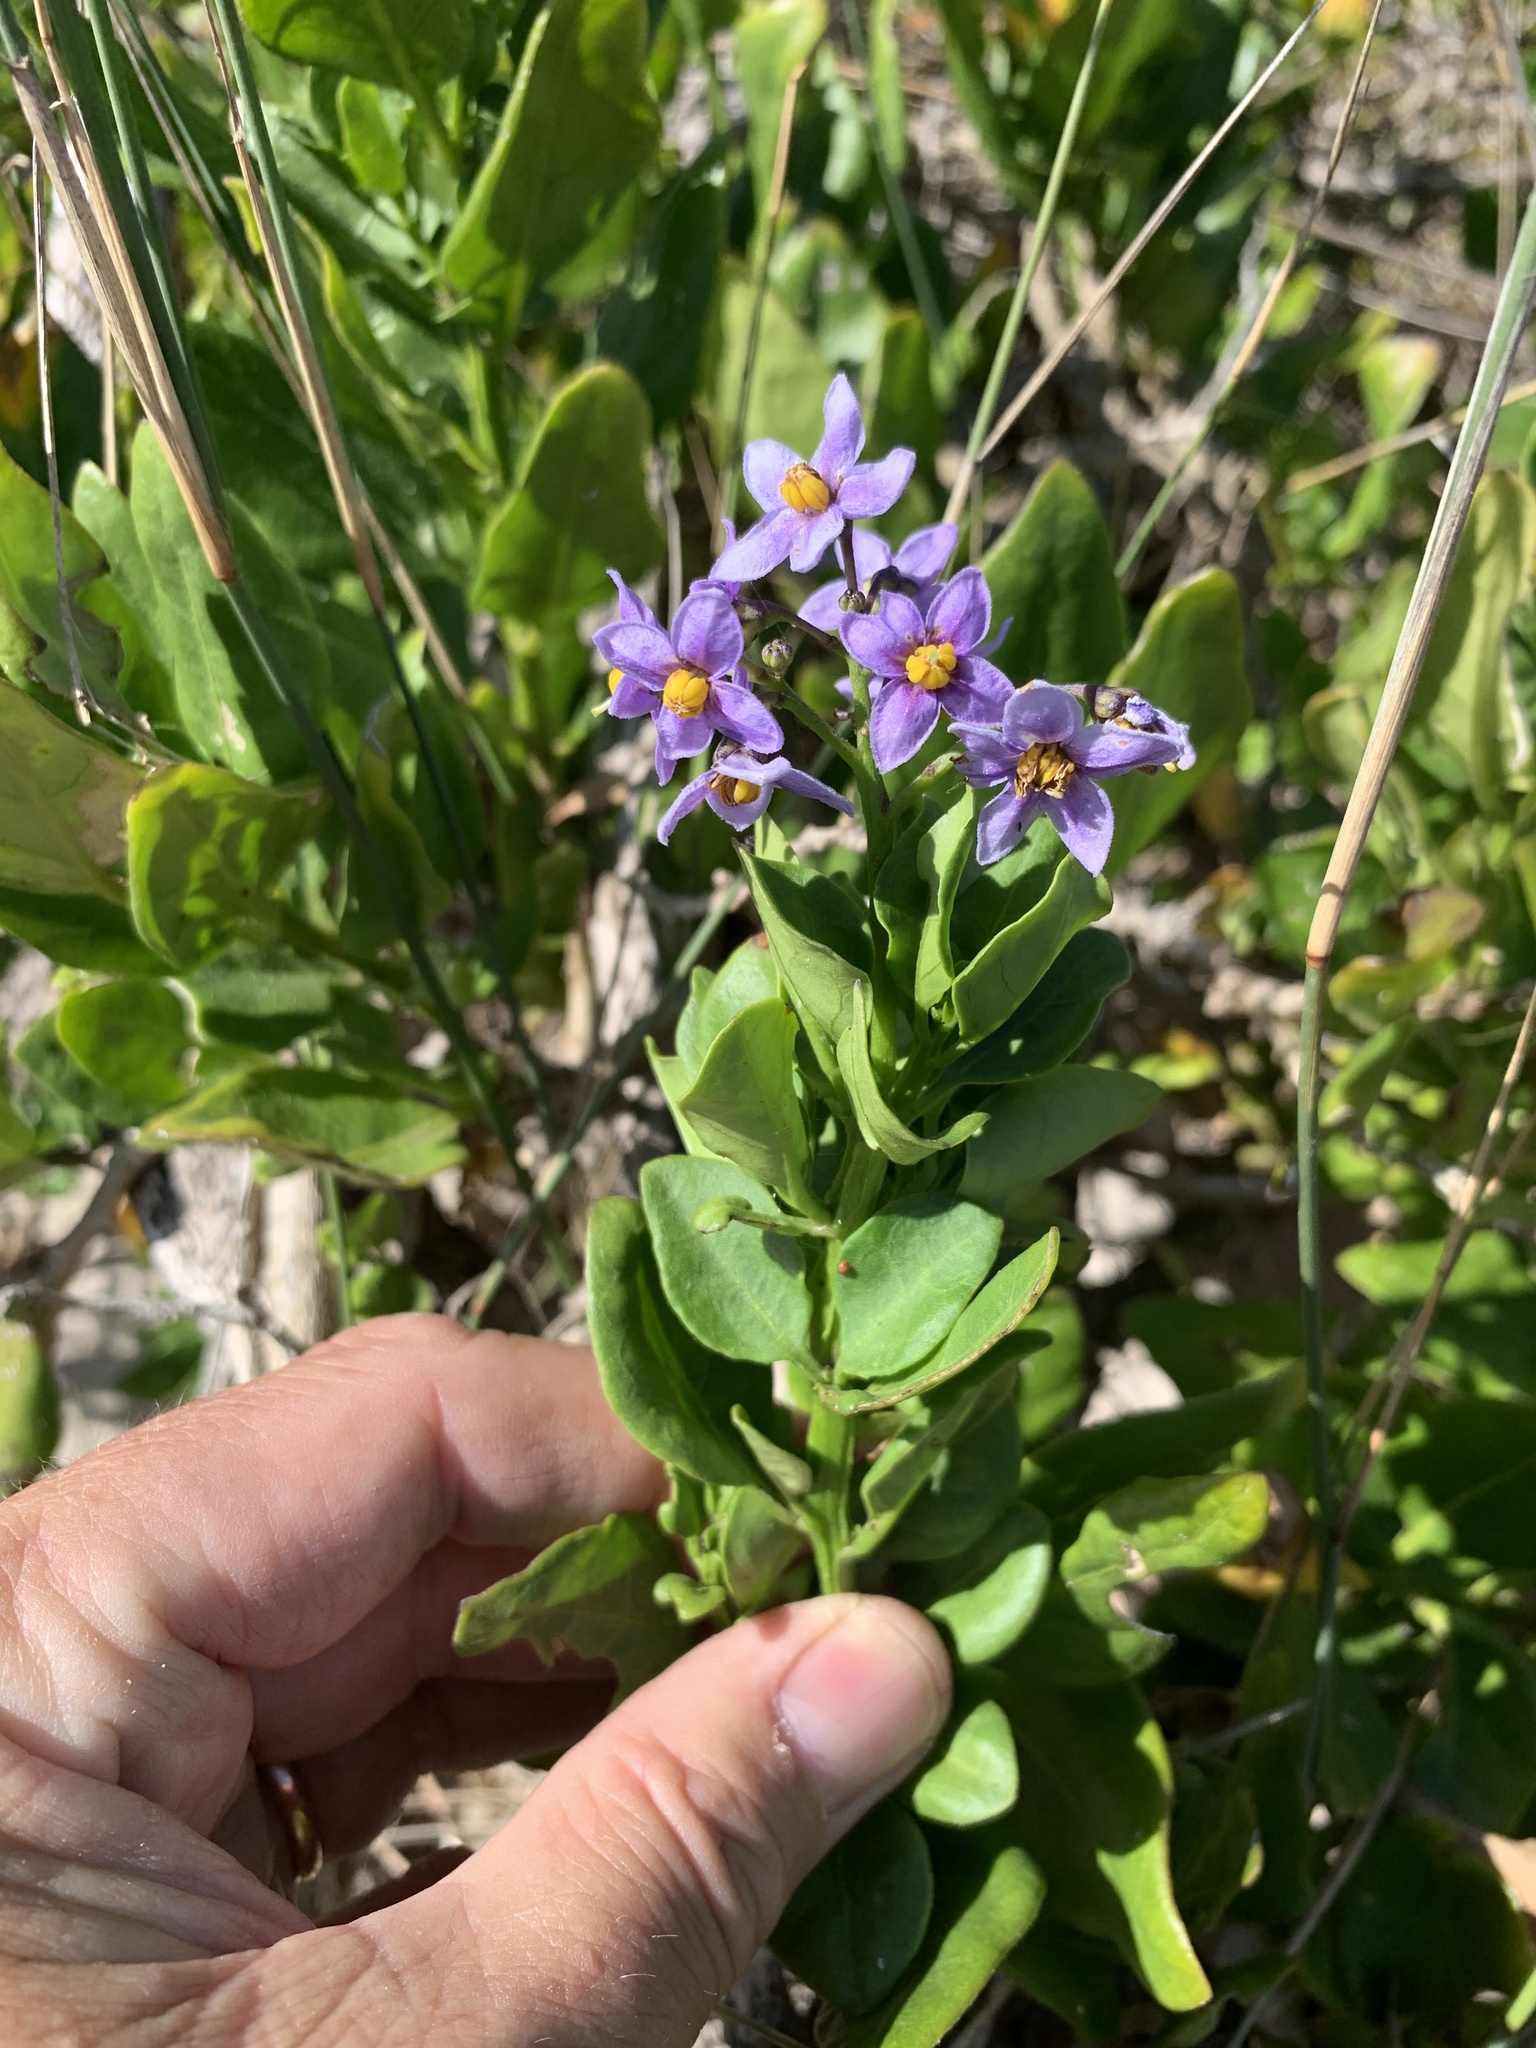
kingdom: Plantae
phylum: Tracheophyta
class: Magnoliopsida
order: Solanales
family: Solanaceae
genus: Solanum
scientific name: Solanum africanum
